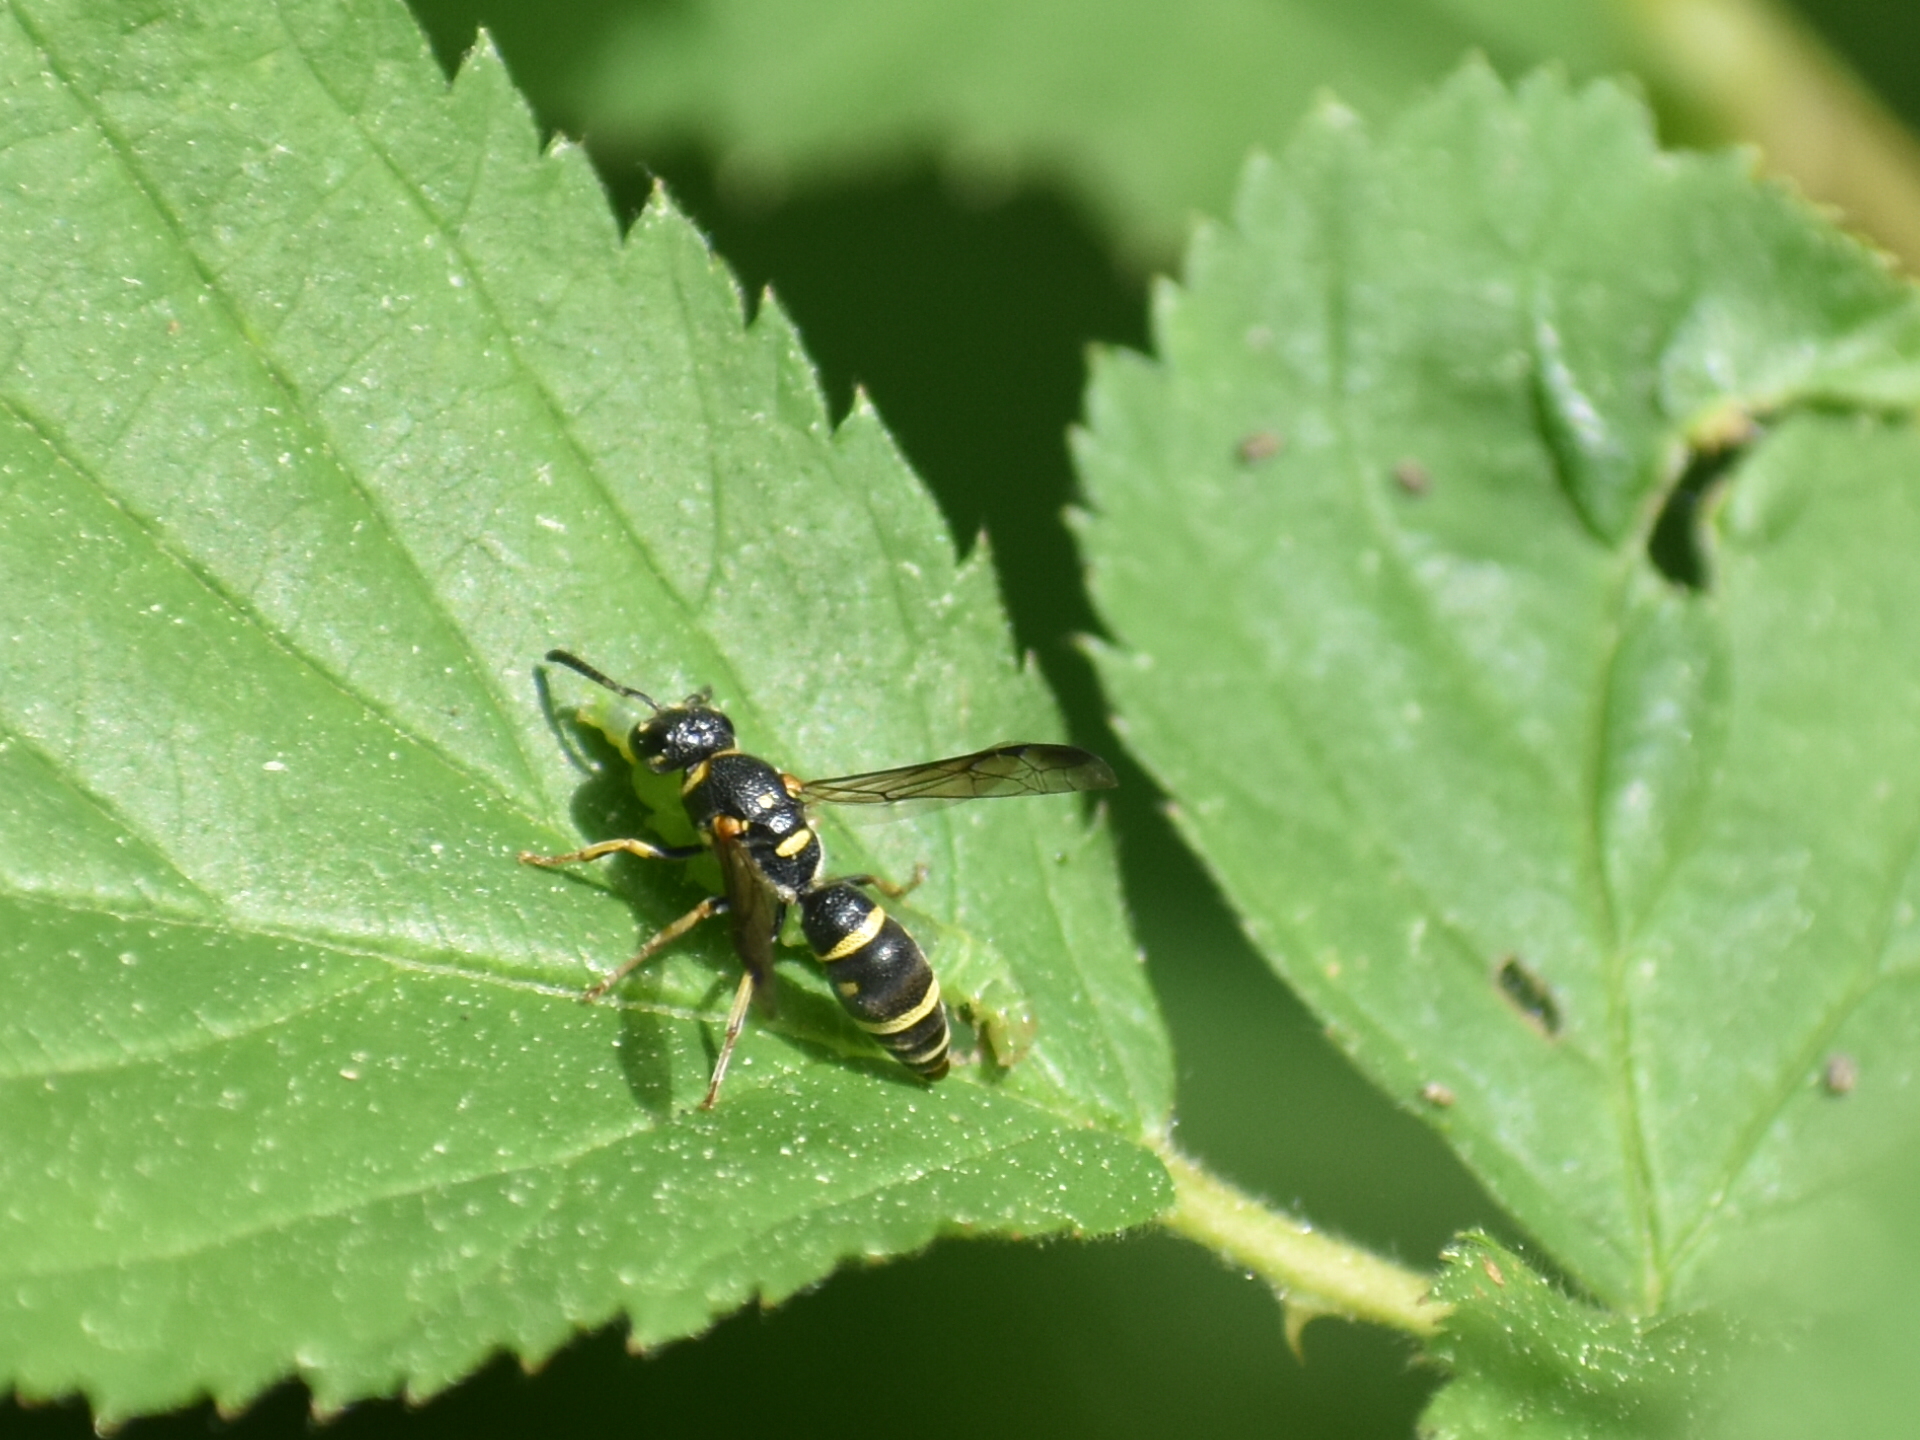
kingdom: Animalia
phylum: Arthropoda
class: Insecta
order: Hymenoptera
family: Eumenidae
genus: Parancistrocerus
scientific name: Parancistrocerus pedestris
